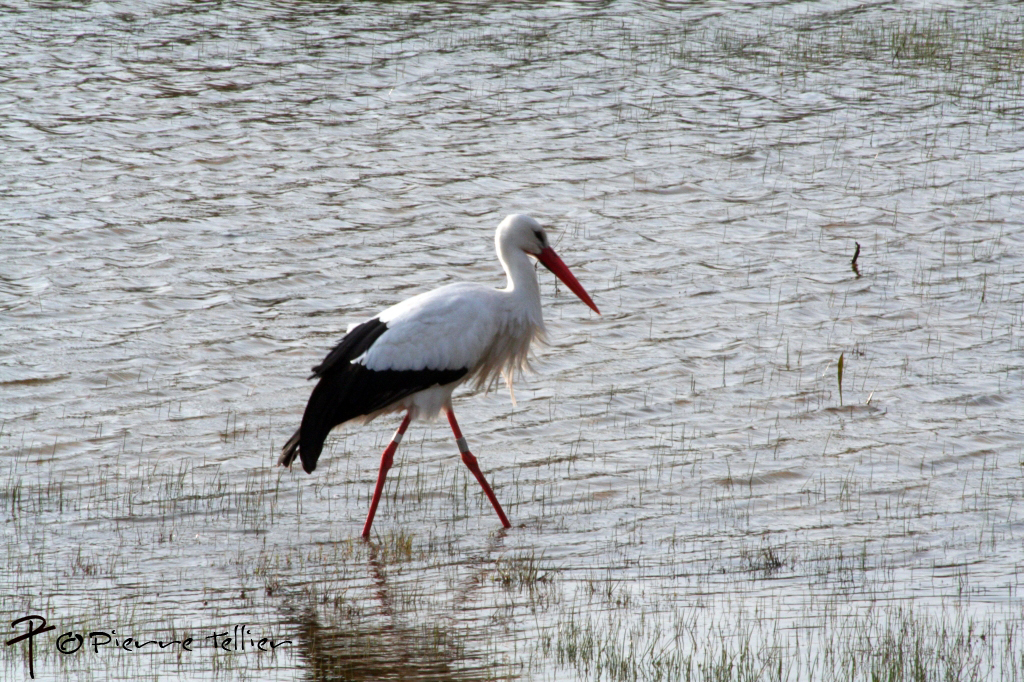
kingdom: Animalia
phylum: Chordata
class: Aves
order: Ciconiiformes
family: Ciconiidae
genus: Ciconia
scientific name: Ciconia ciconia
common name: White stork
